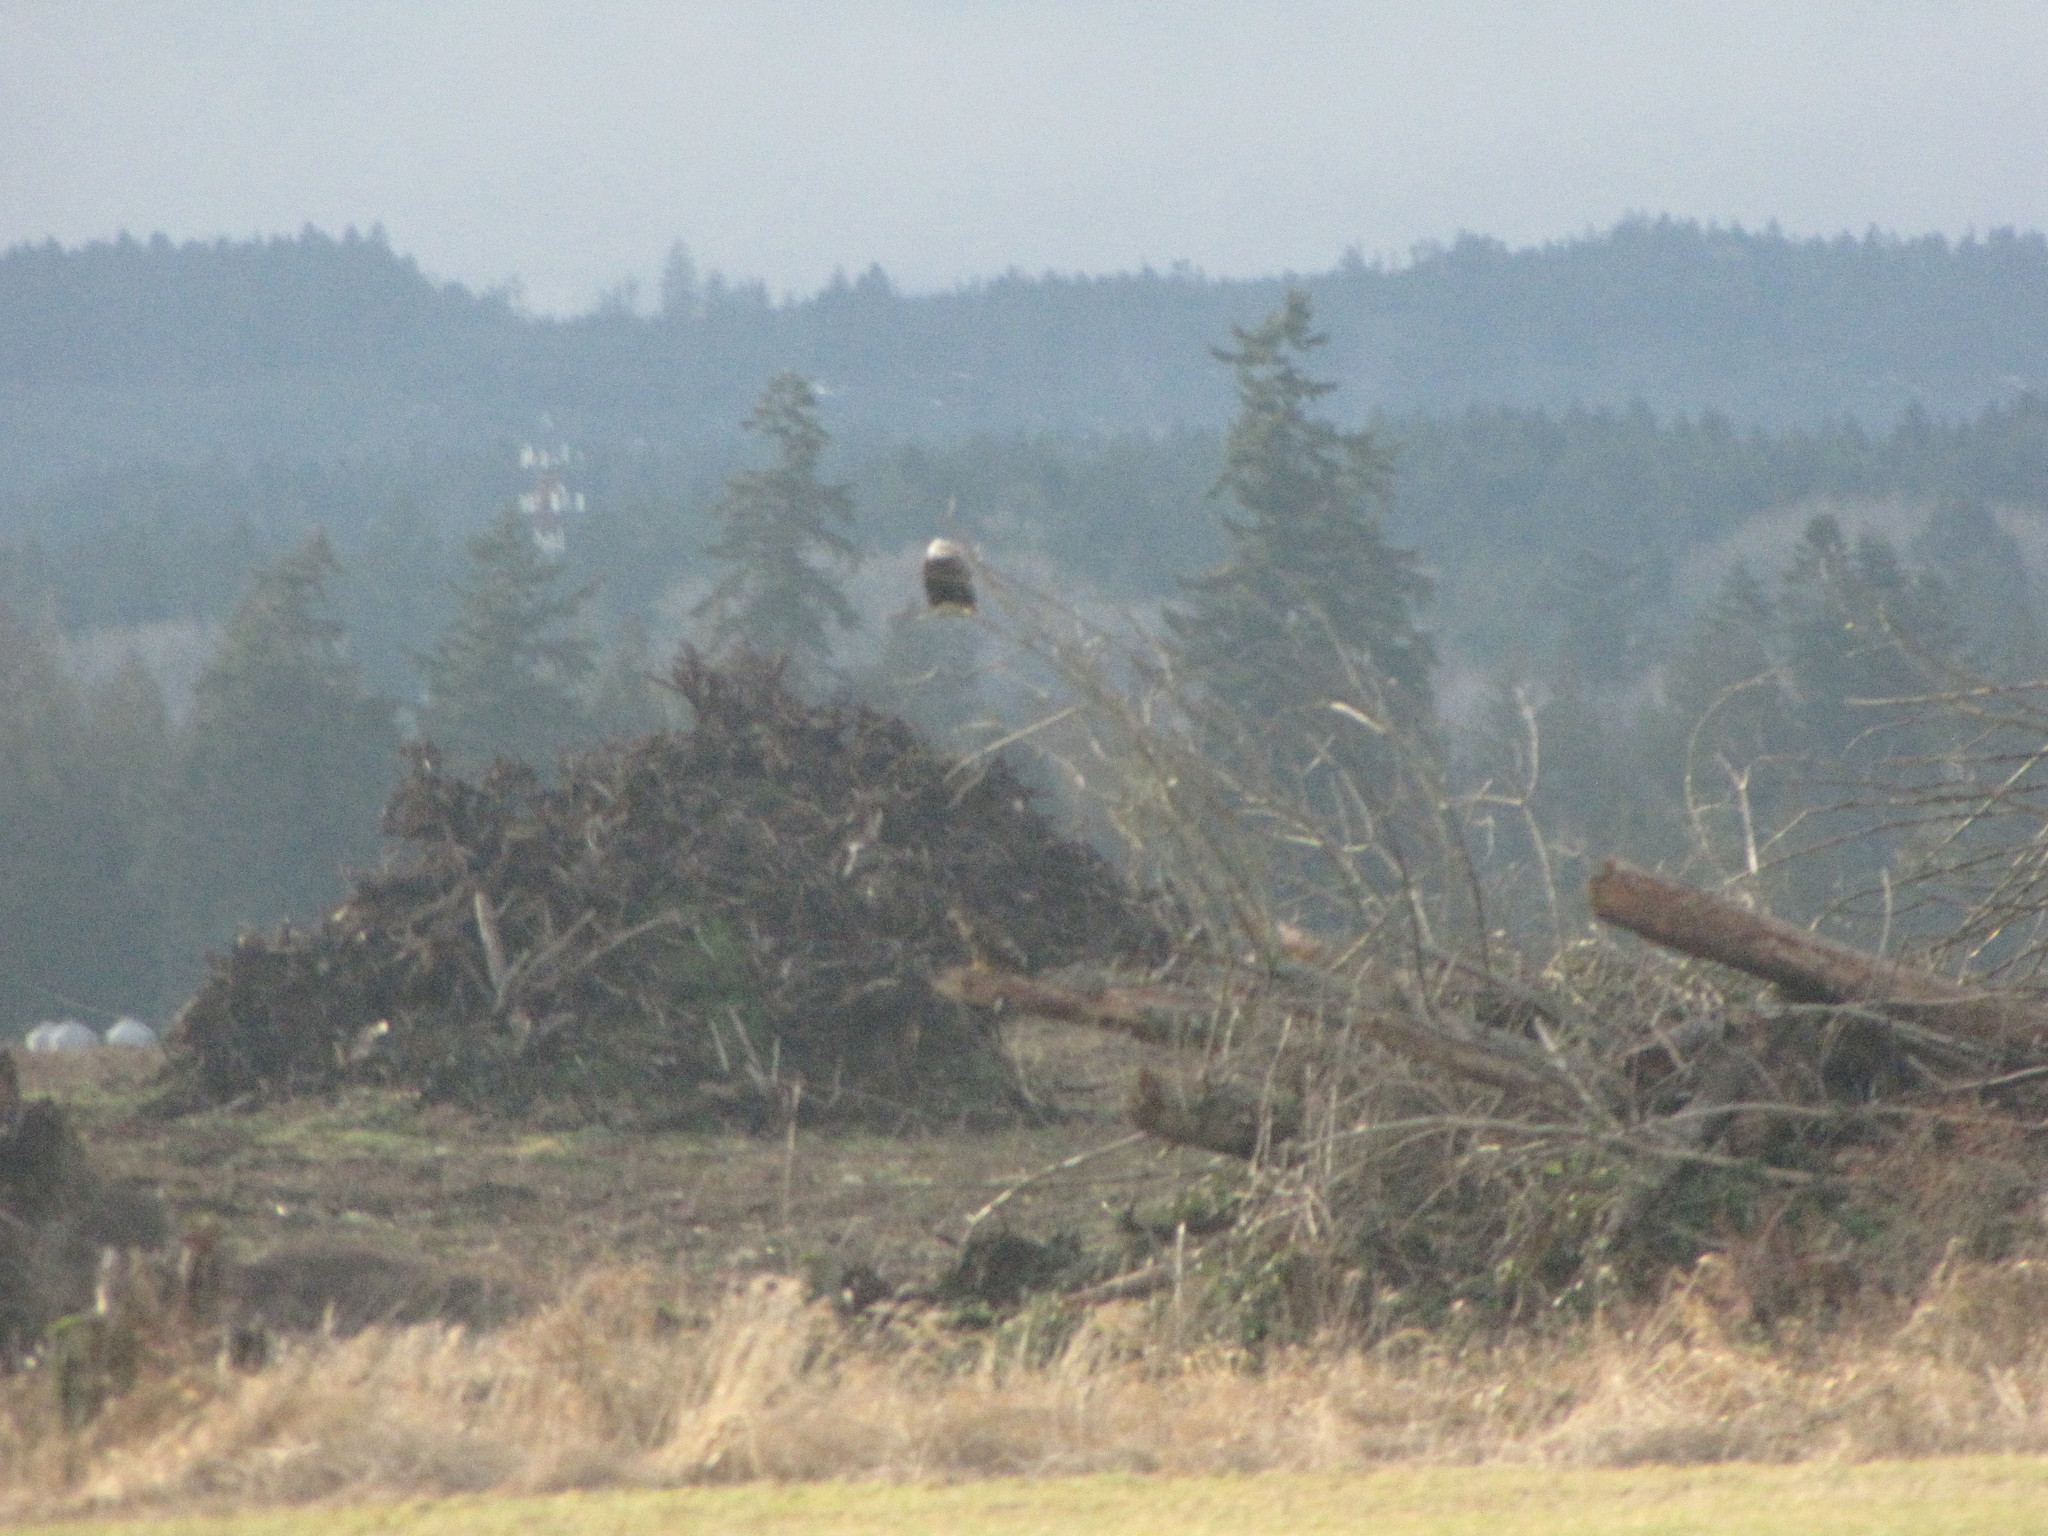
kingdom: Animalia
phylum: Chordata
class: Aves
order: Accipitriformes
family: Accipitridae
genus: Haliaeetus
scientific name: Haliaeetus leucocephalus
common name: Bald eagle
